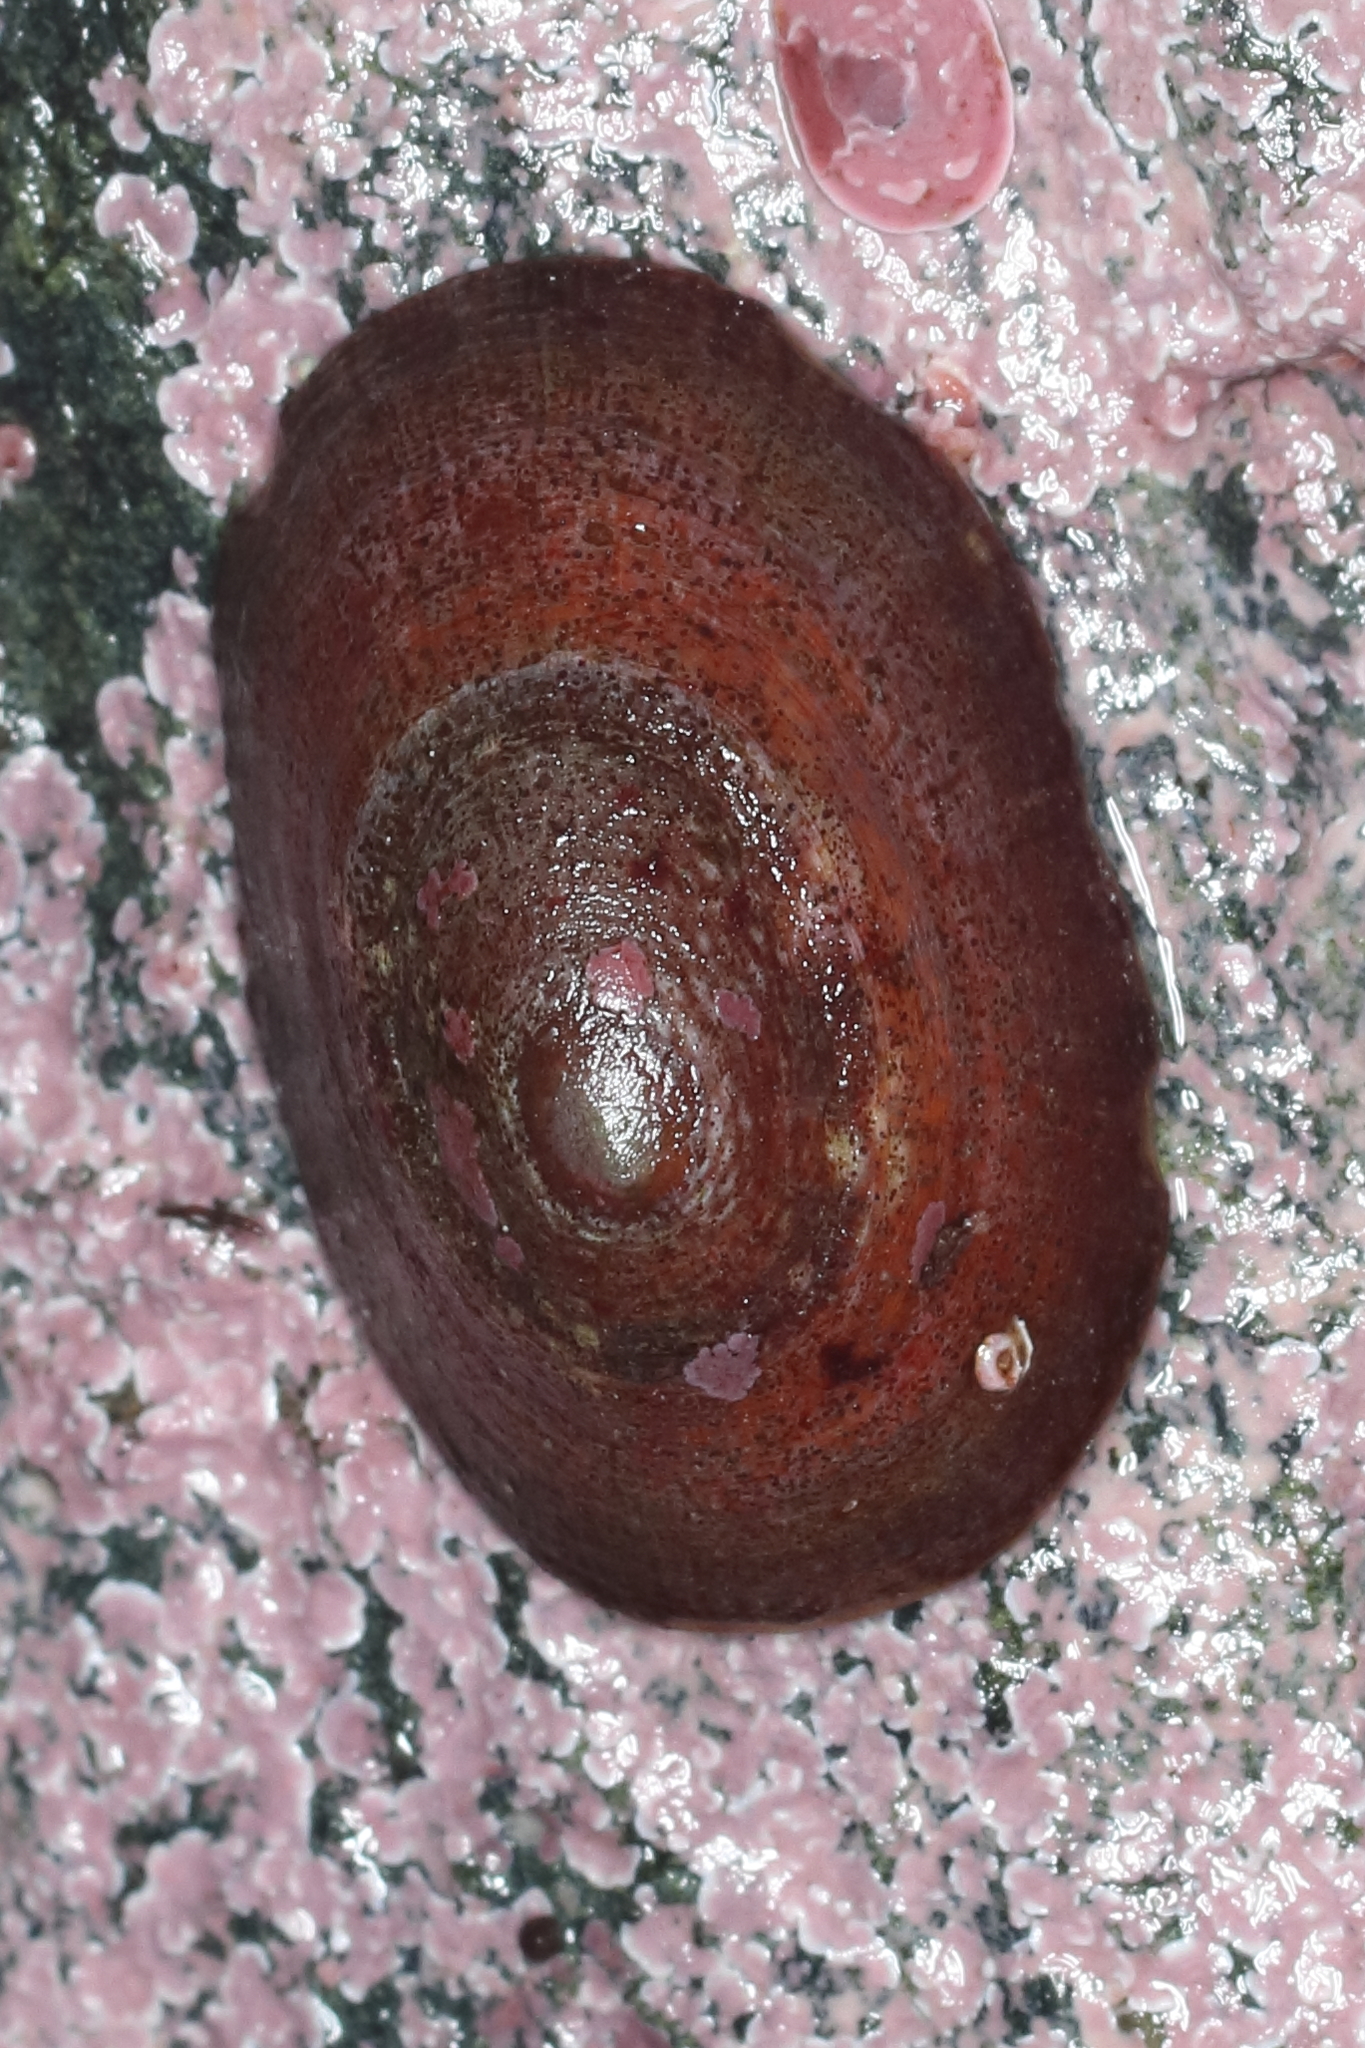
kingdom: Animalia
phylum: Mollusca
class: Gastropoda
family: Lottiidae
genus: Lottia
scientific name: Lottia instabilis
